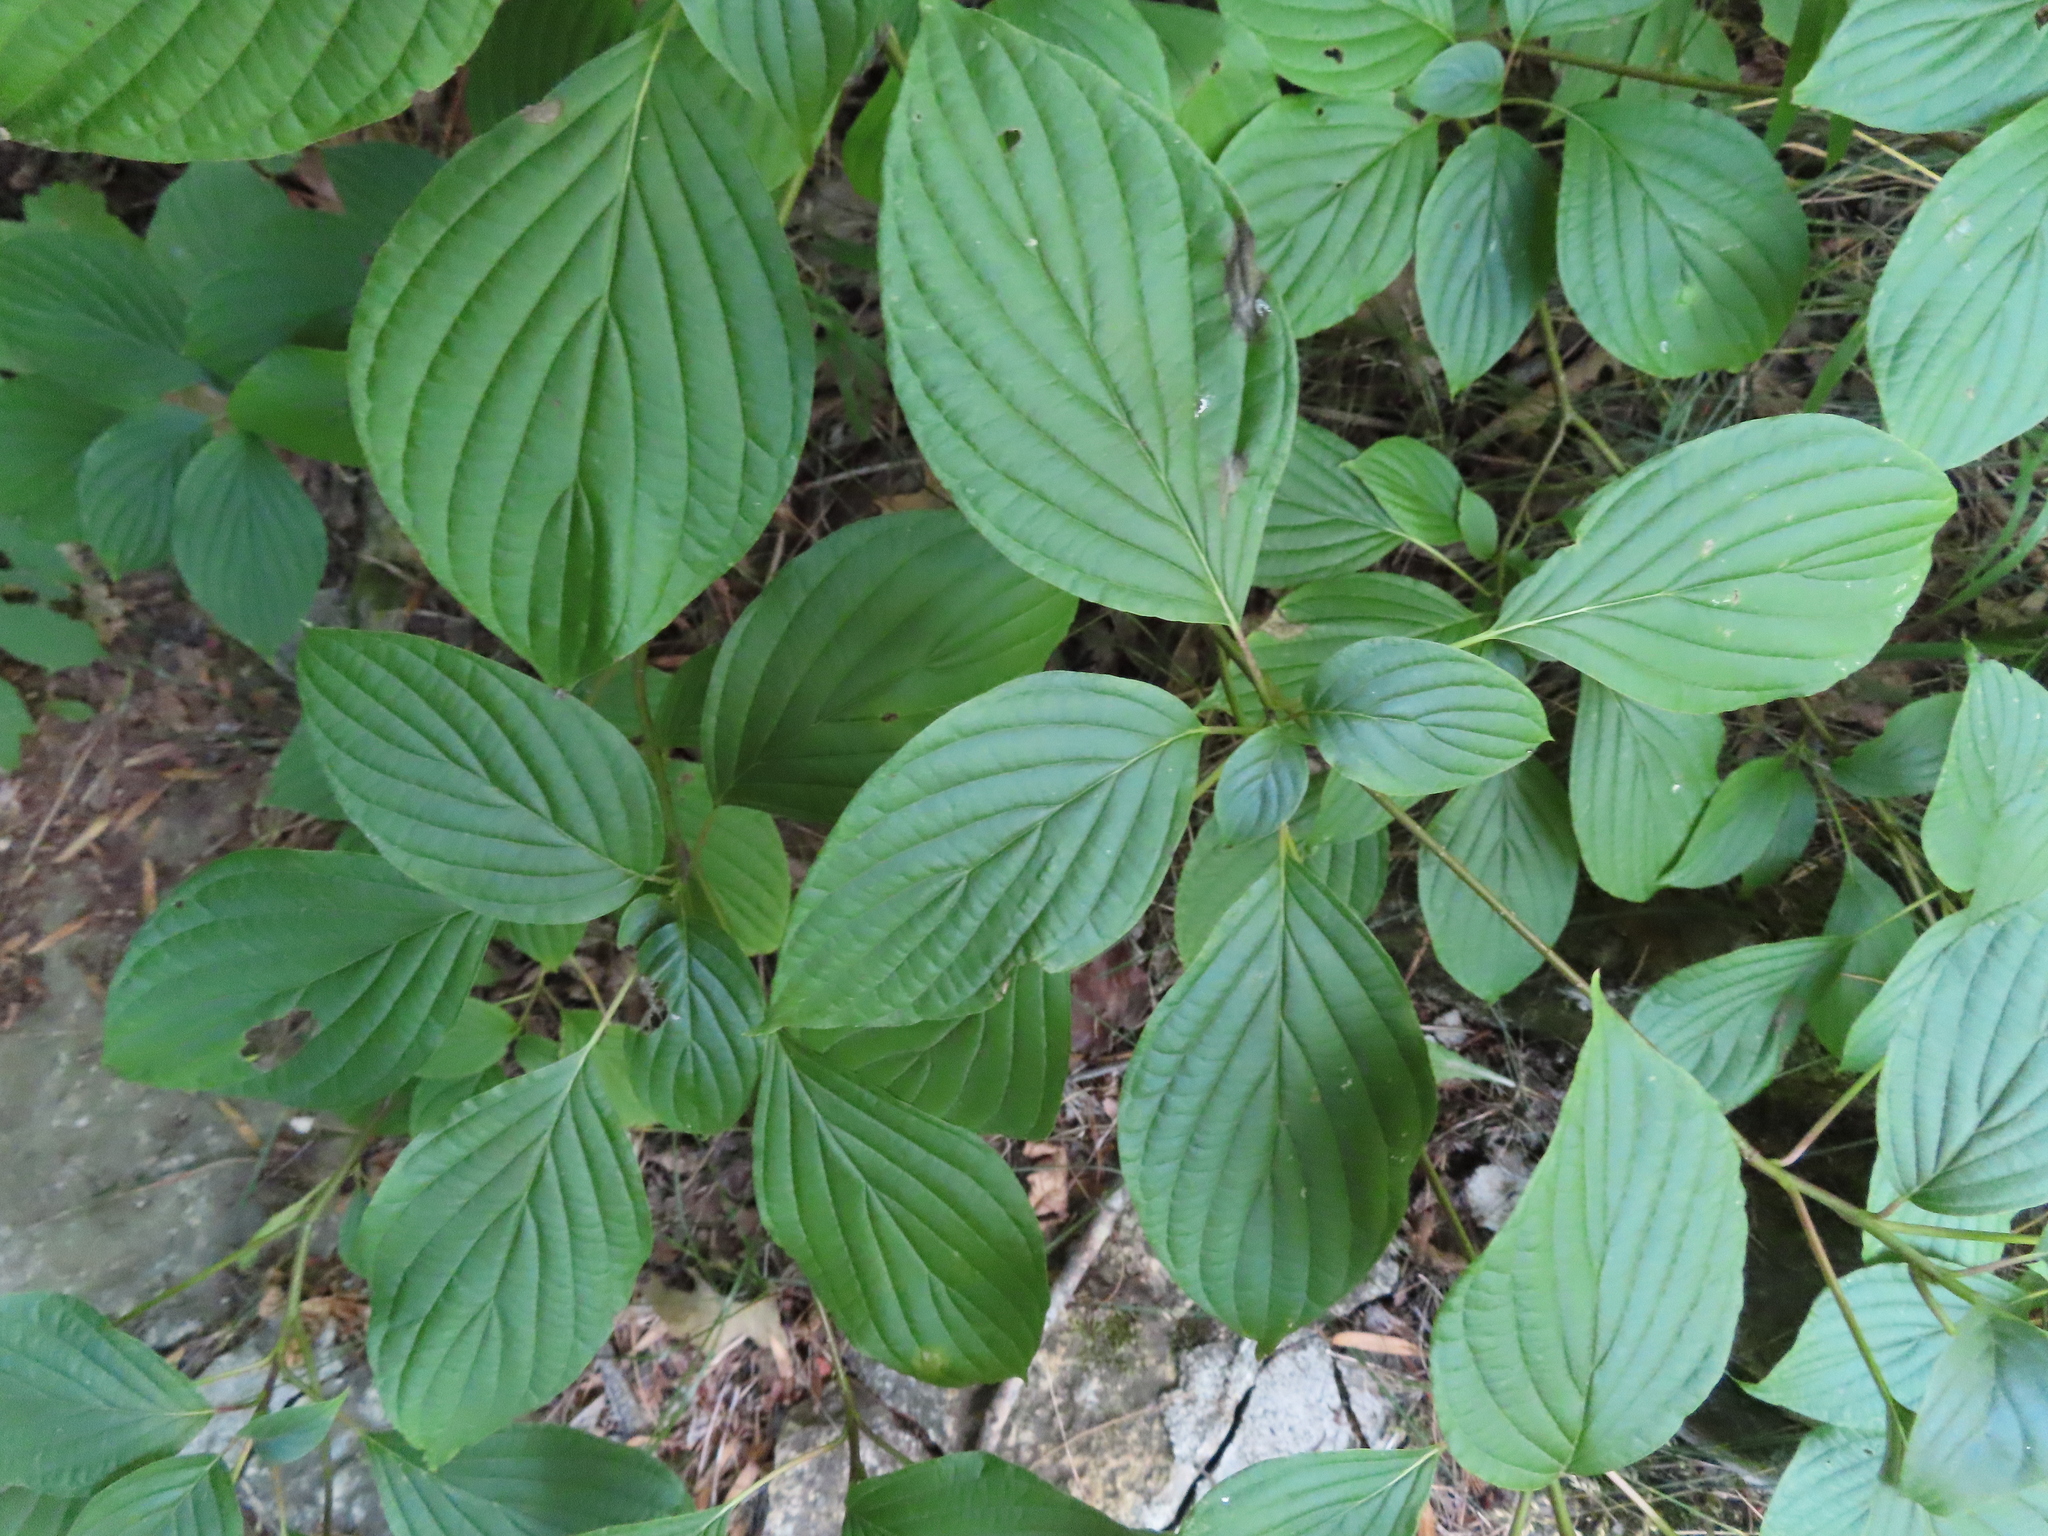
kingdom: Plantae
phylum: Tracheophyta
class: Magnoliopsida
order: Cornales
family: Cornaceae
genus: Cornus
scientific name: Cornus alternifolia
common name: Pagoda dogwood
